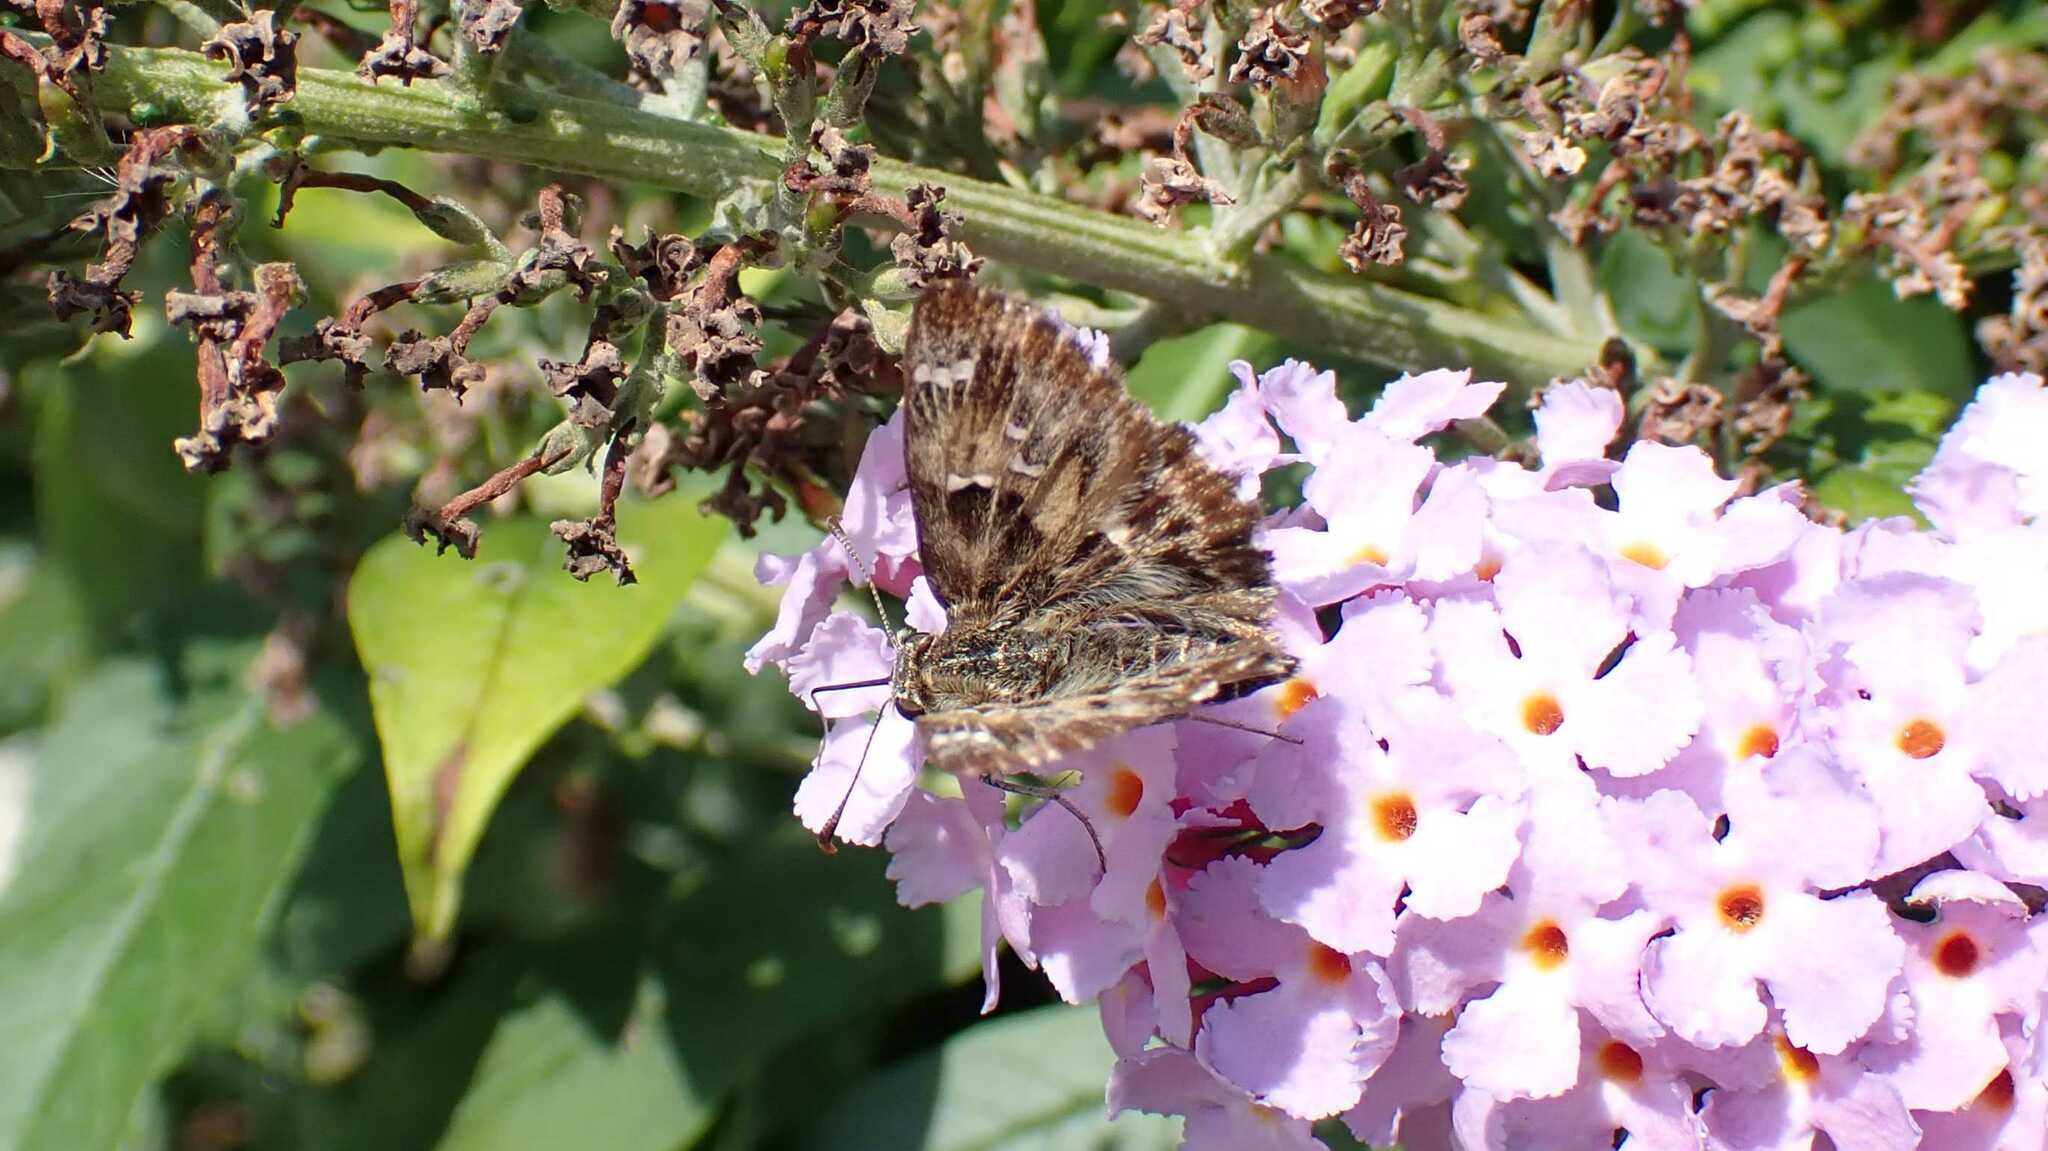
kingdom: Animalia
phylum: Arthropoda
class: Insecta
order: Lepidoptera
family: Hesperiidae
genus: Carcharodus
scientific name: Carcharodus alceae
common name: Mallow skipper
